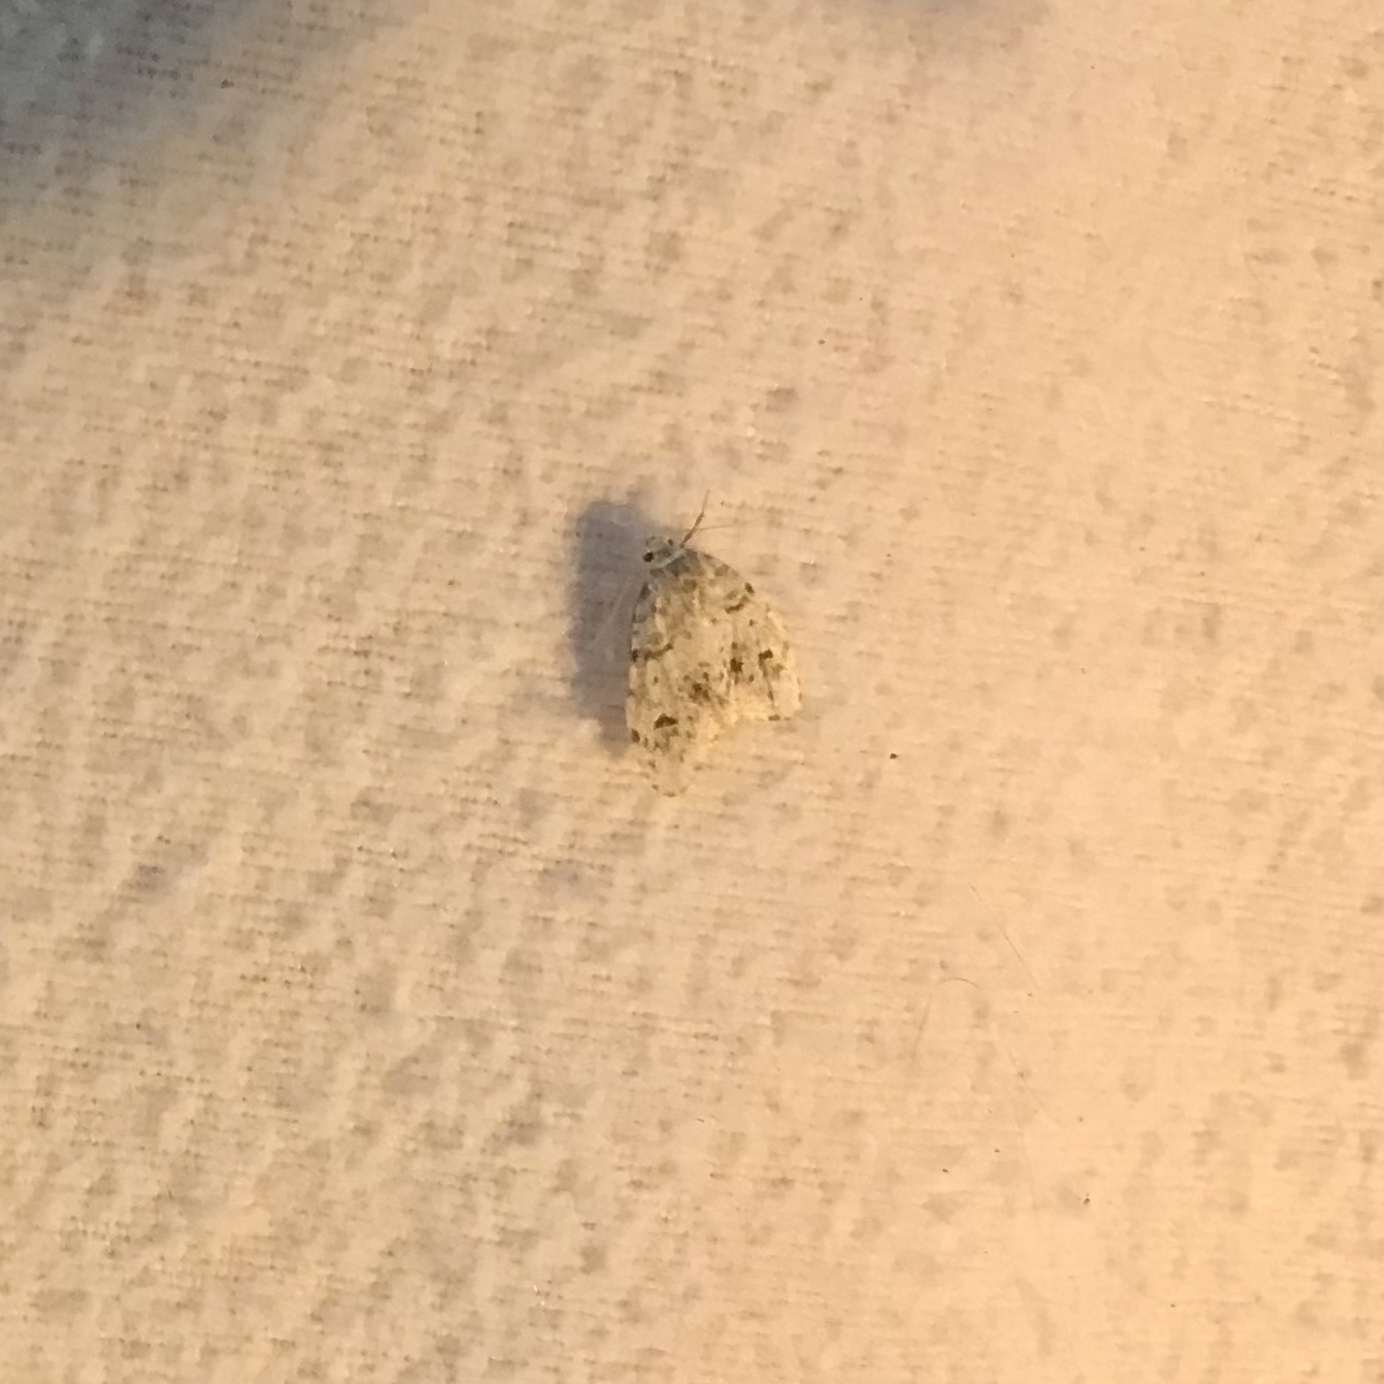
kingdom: Animalia
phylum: Arthropoda
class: Insecta
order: Lepidoptera
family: Erebidae
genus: Clemensia
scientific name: Clemensia umbrata
